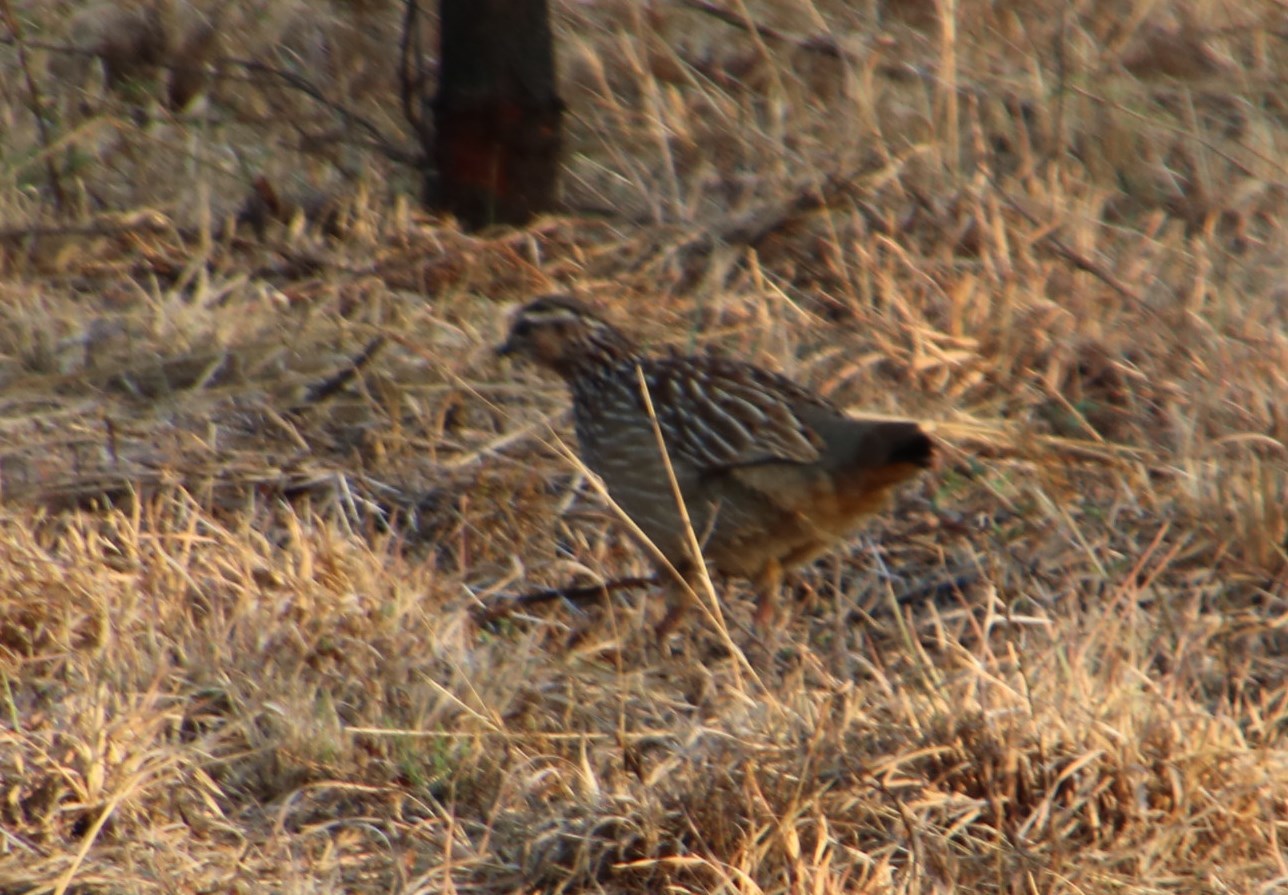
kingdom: Animalia
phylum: Chordata
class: Aves
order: Galliformes
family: Phasianidae
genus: Ortygornis
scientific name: Ortygornis sephaena
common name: Crested francolin
